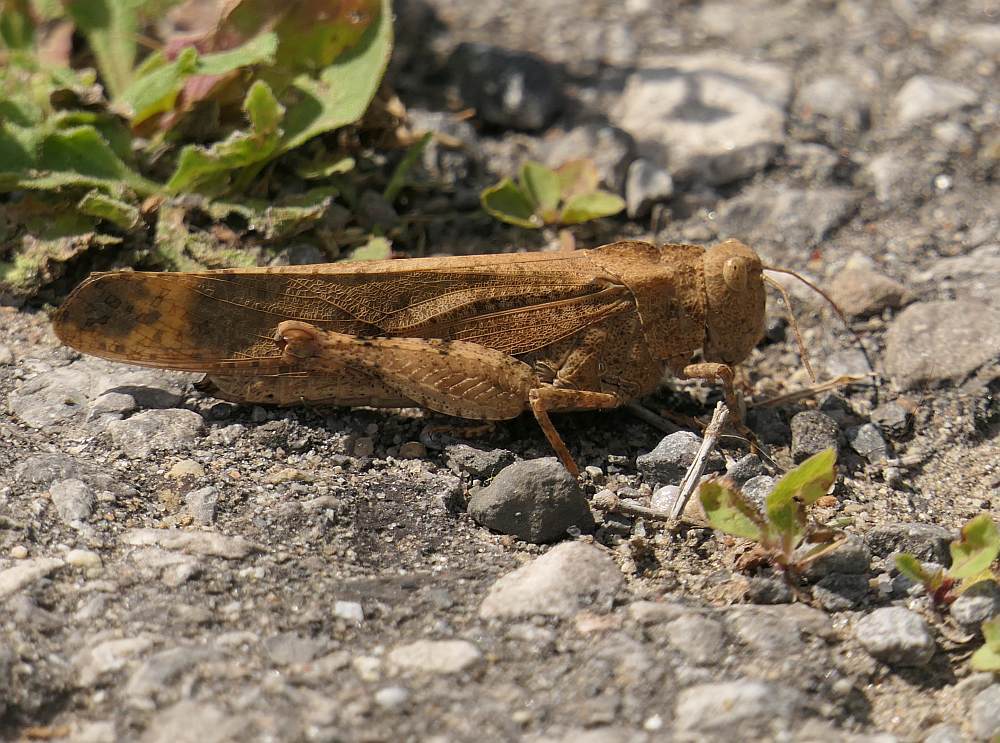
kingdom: Animalia
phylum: Arthropoda
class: Insecta
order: Orthoptera
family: Acrididae
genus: Dissosteira
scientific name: Dissosteira carolina
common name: Carolina grasshopper
